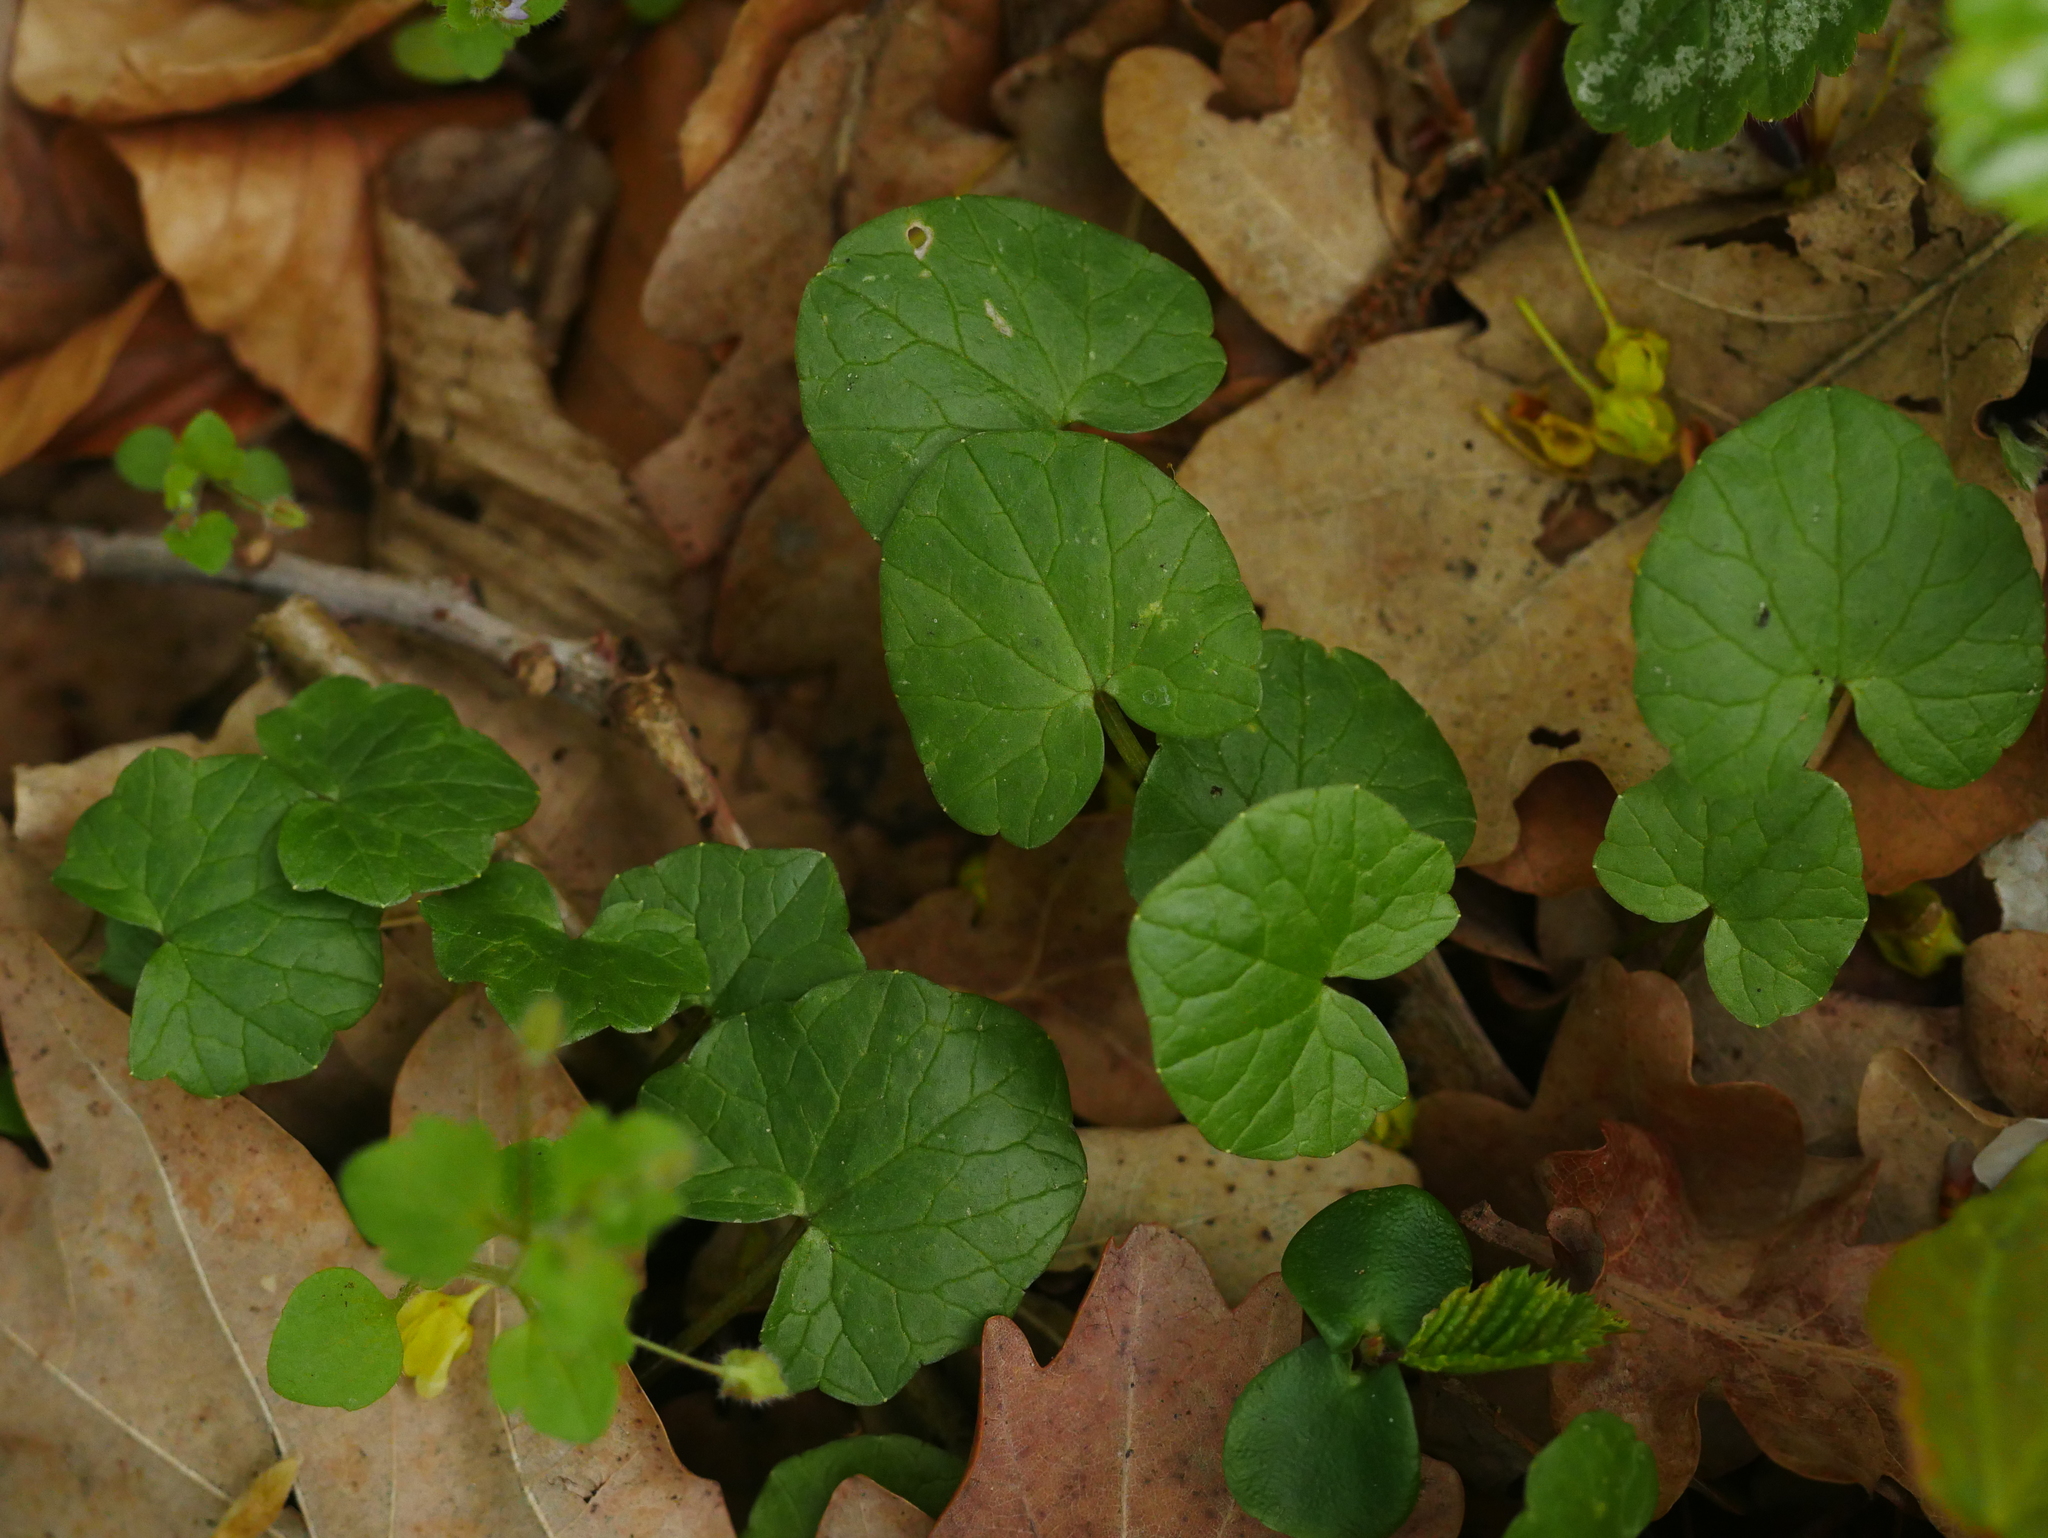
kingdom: Plantae
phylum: Tracheophyta
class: Magnoliopsida
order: Ranunculales
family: Ranunculaceae
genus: Ficaria
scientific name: Ficaria verna
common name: Lesser celandine
